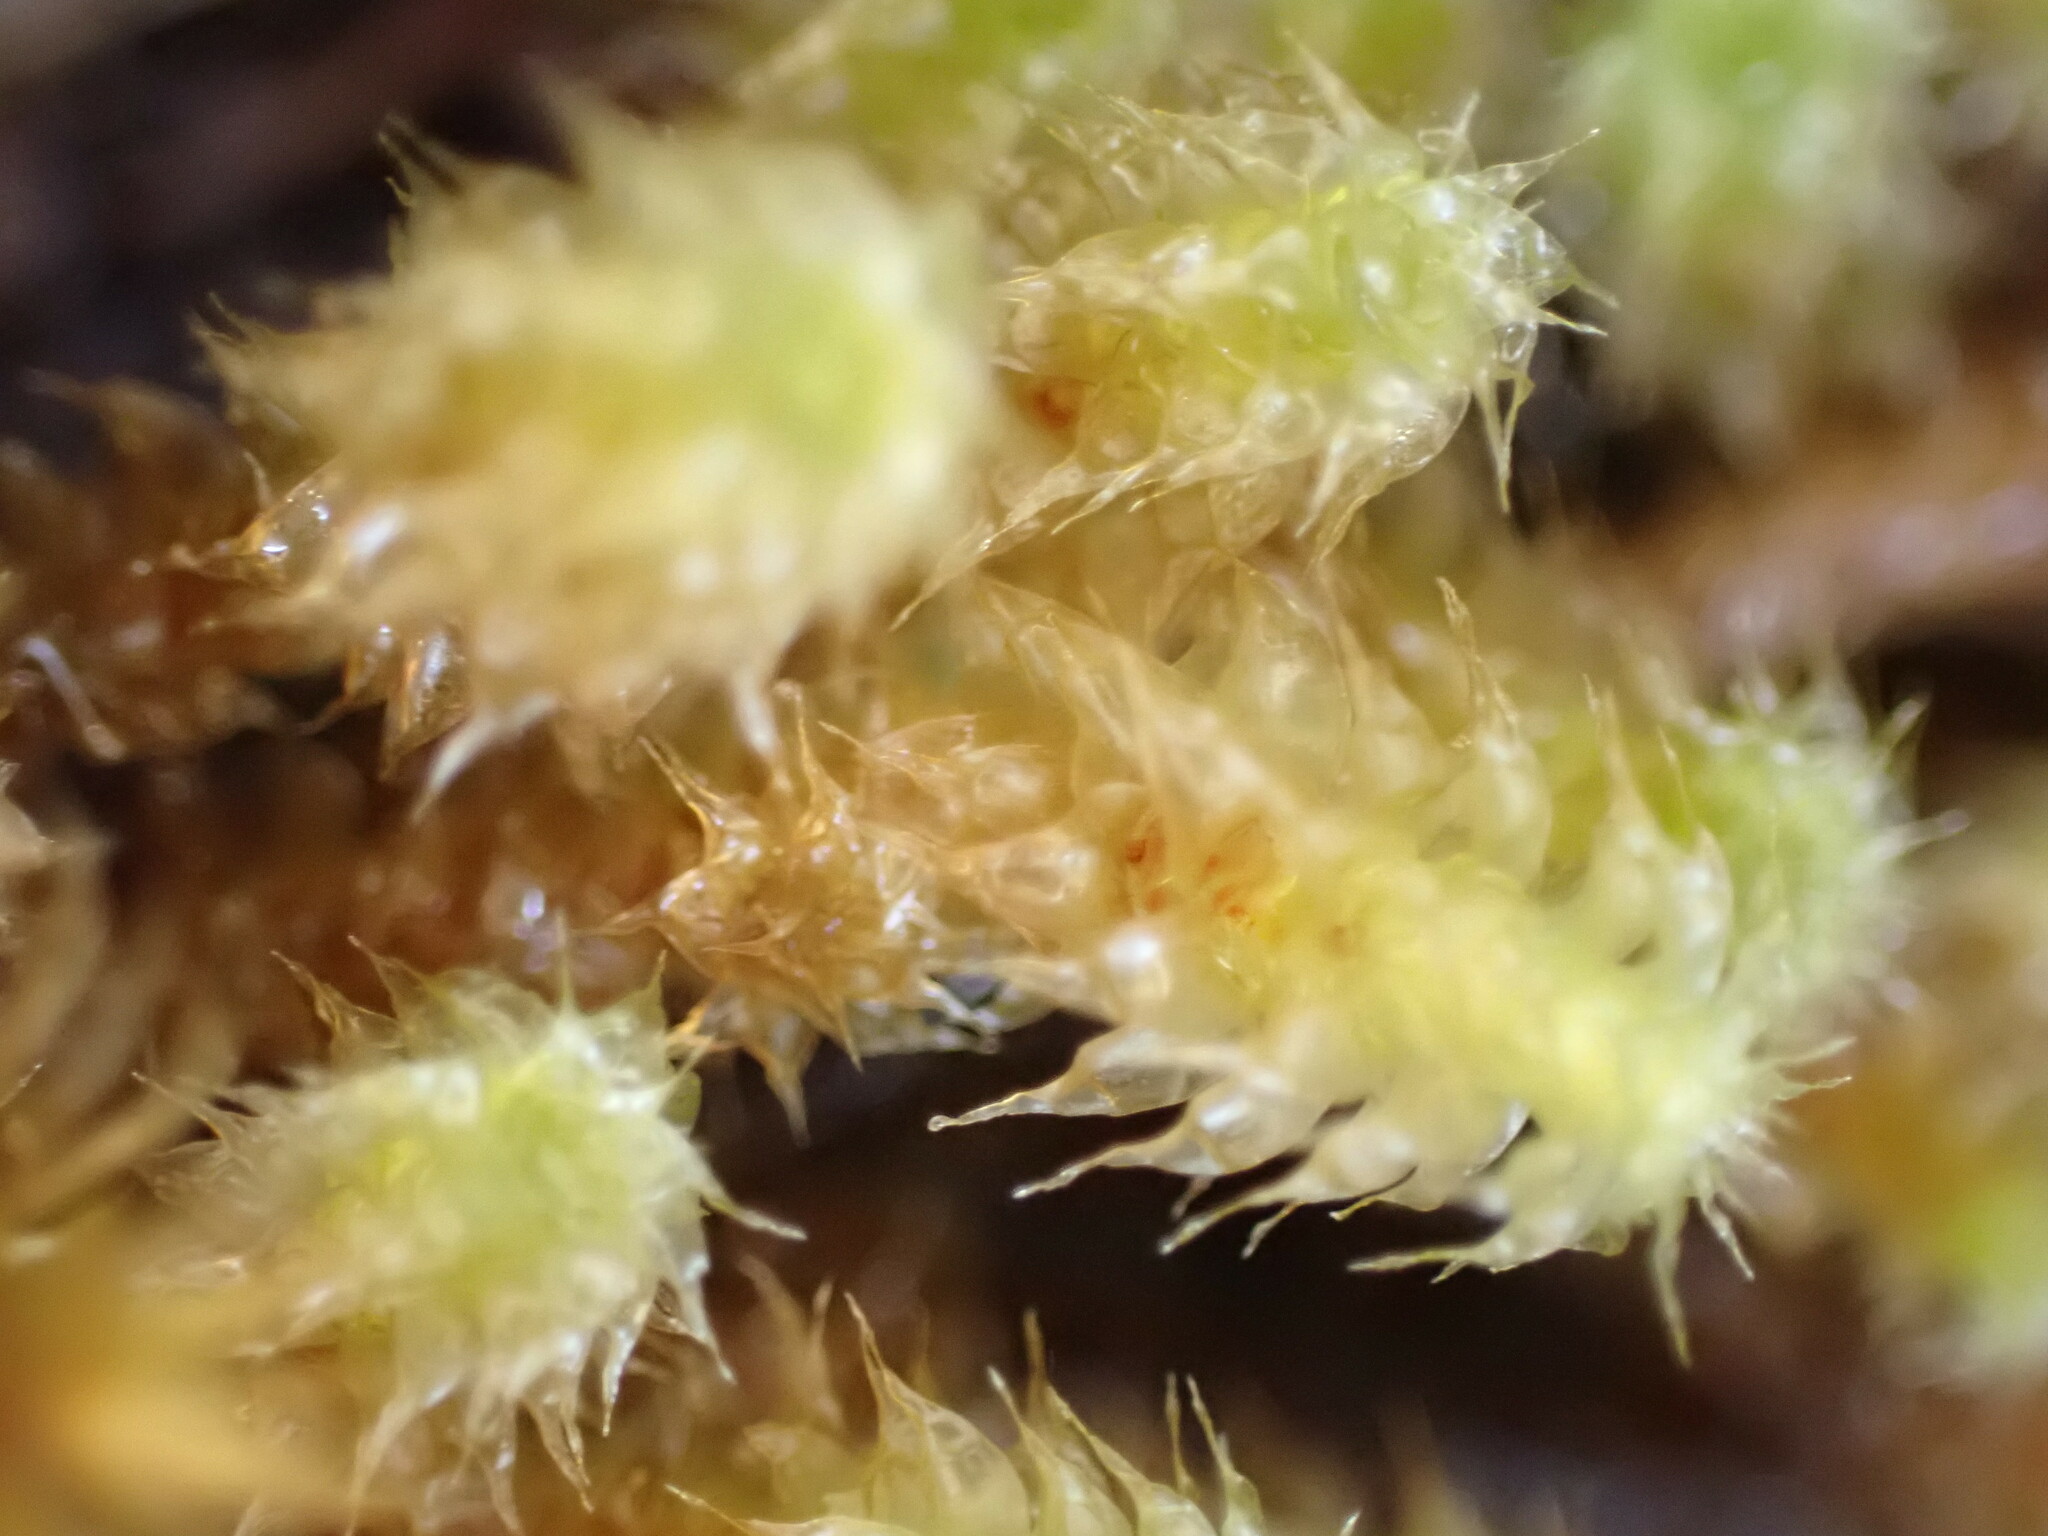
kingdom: Plantae
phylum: Bryophyta
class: Bryopsida
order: Ptychomniales
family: Ptychomniaceae
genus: Ptychomnion
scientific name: Ptychomnion densifolium
